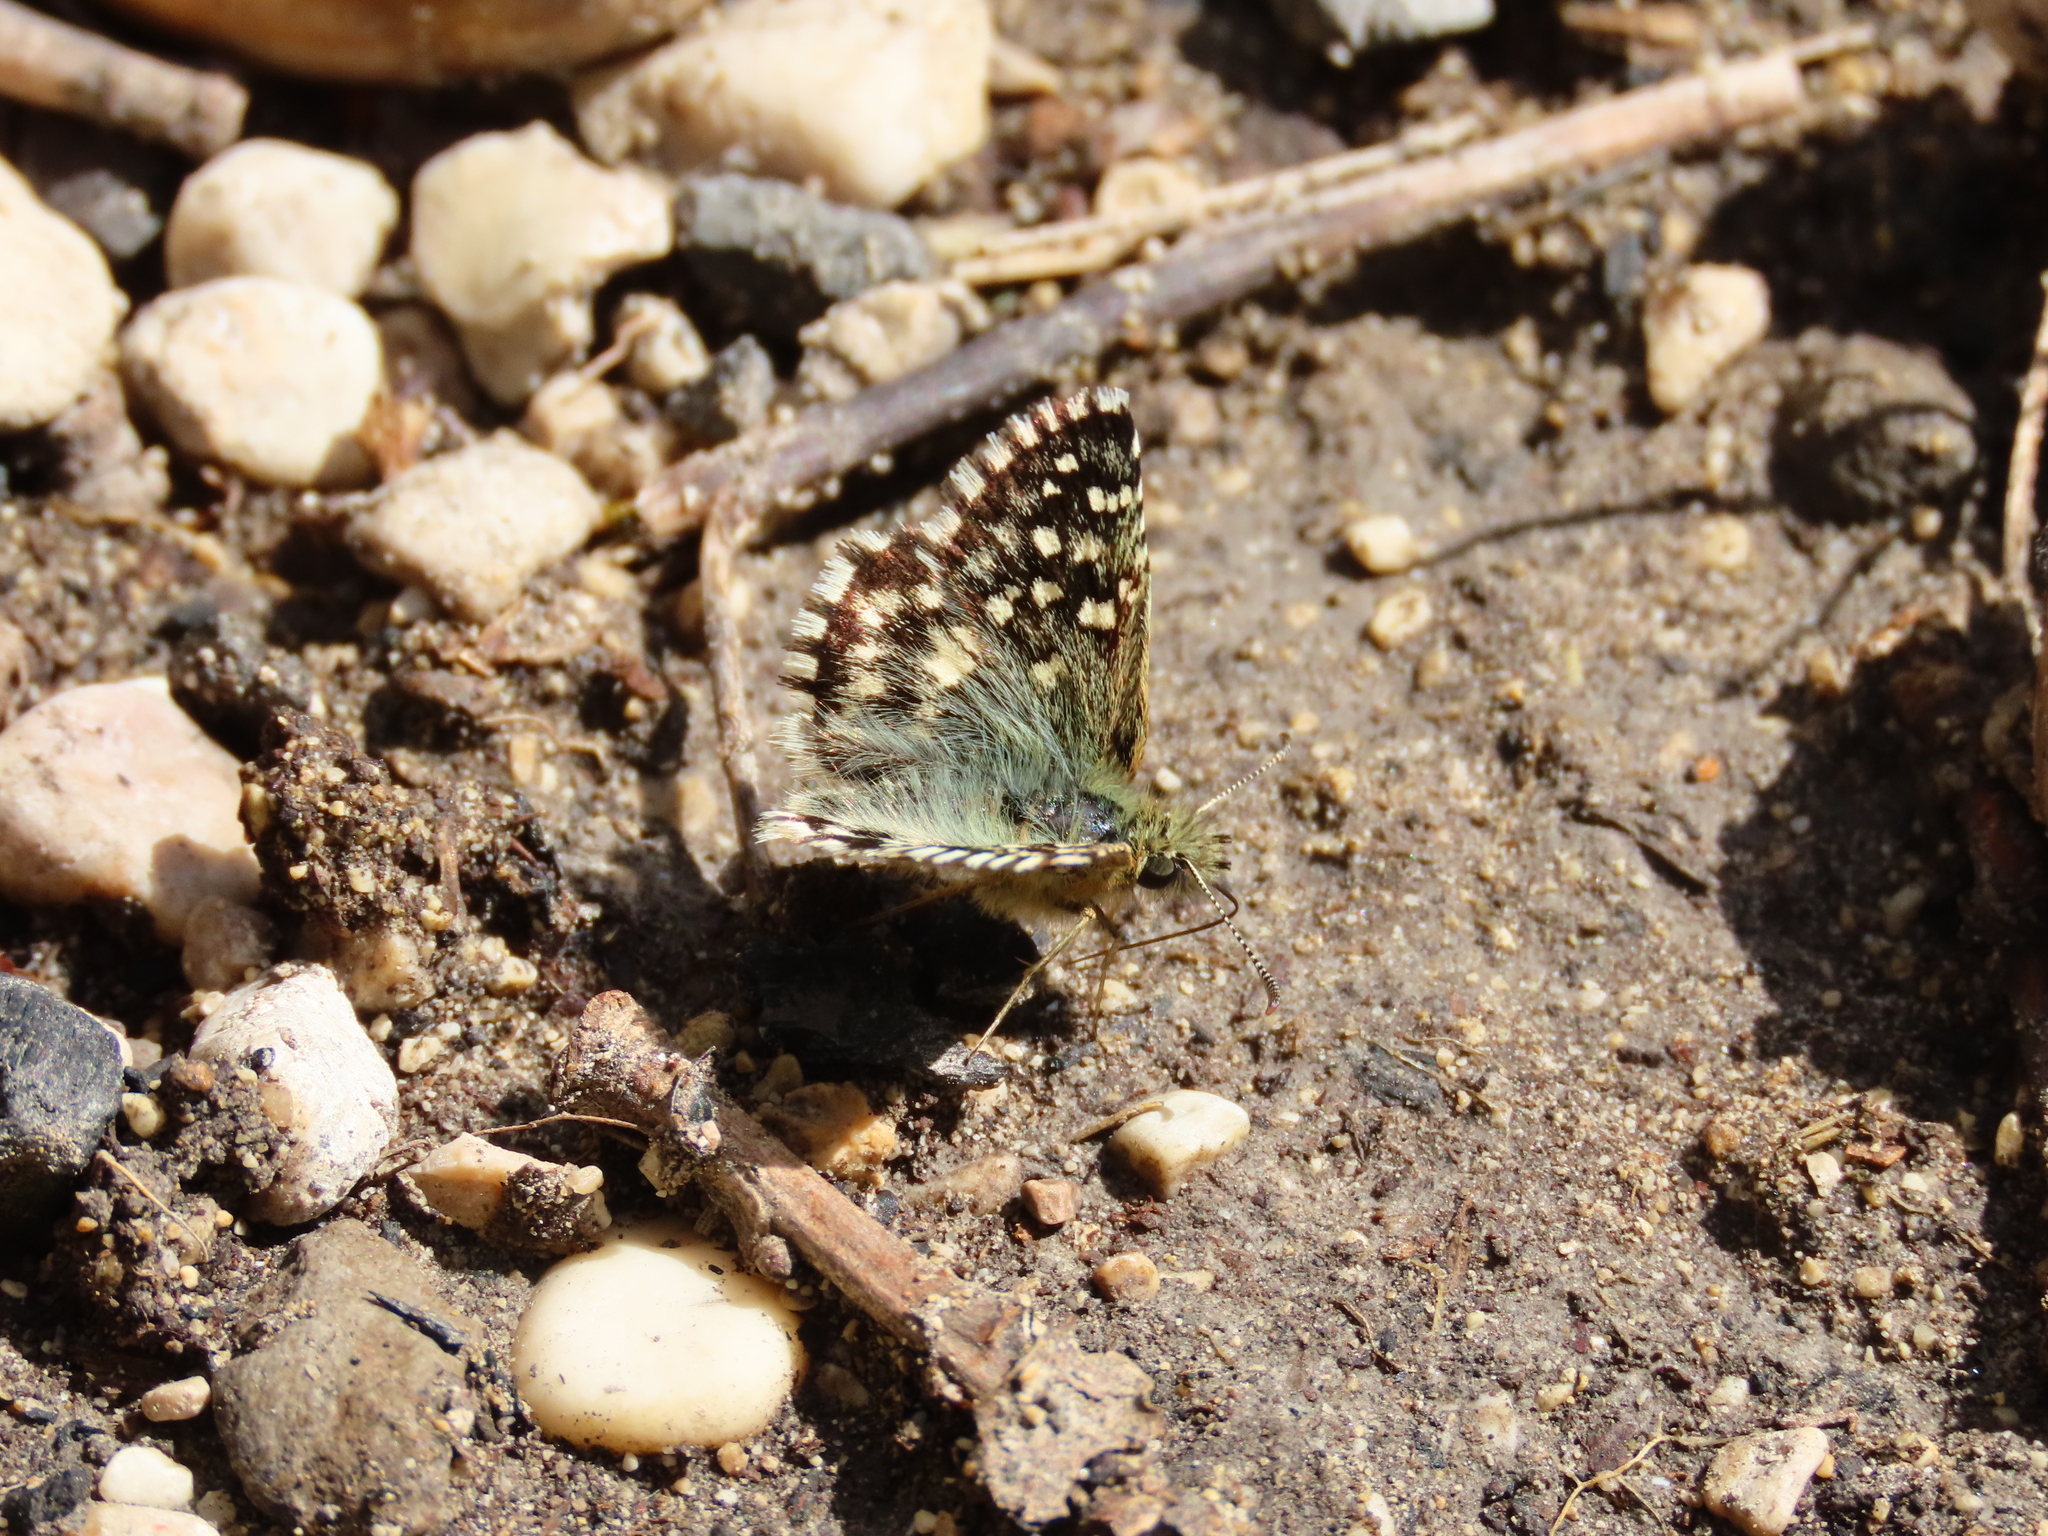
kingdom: Animalia
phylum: Arthropoda
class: Insecta
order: Lepidoptera
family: Hesperiidae
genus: Pyrgus
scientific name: Pyrgus malvoides
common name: Southern grizzled skipper
